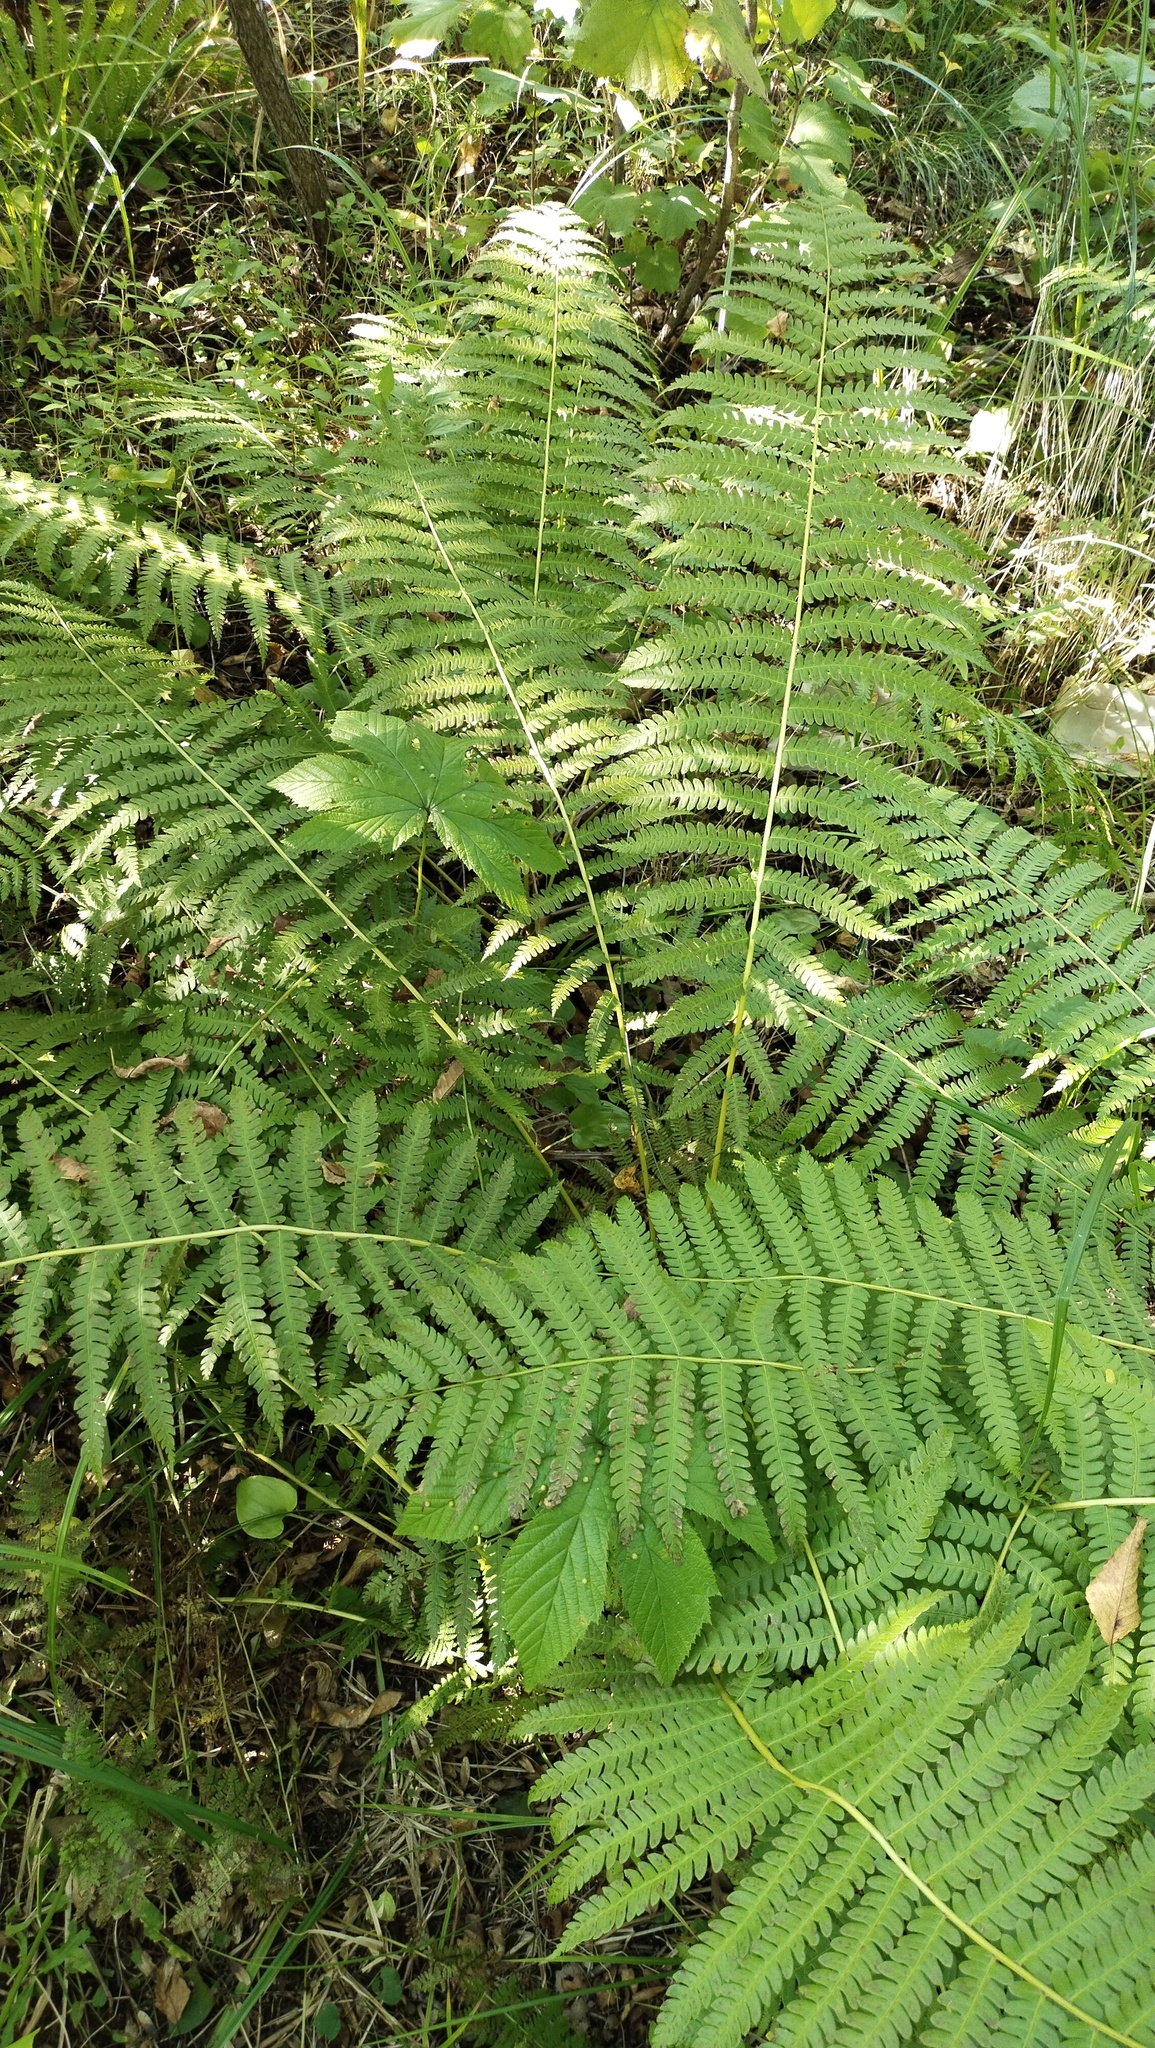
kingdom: Plantae
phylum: Tracheophyta
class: Polypodiopsida
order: Osmundales
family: Osmundaceae
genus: Osmundastrum
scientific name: Osmundastrum cinnamomeum
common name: Cinnamon fern
